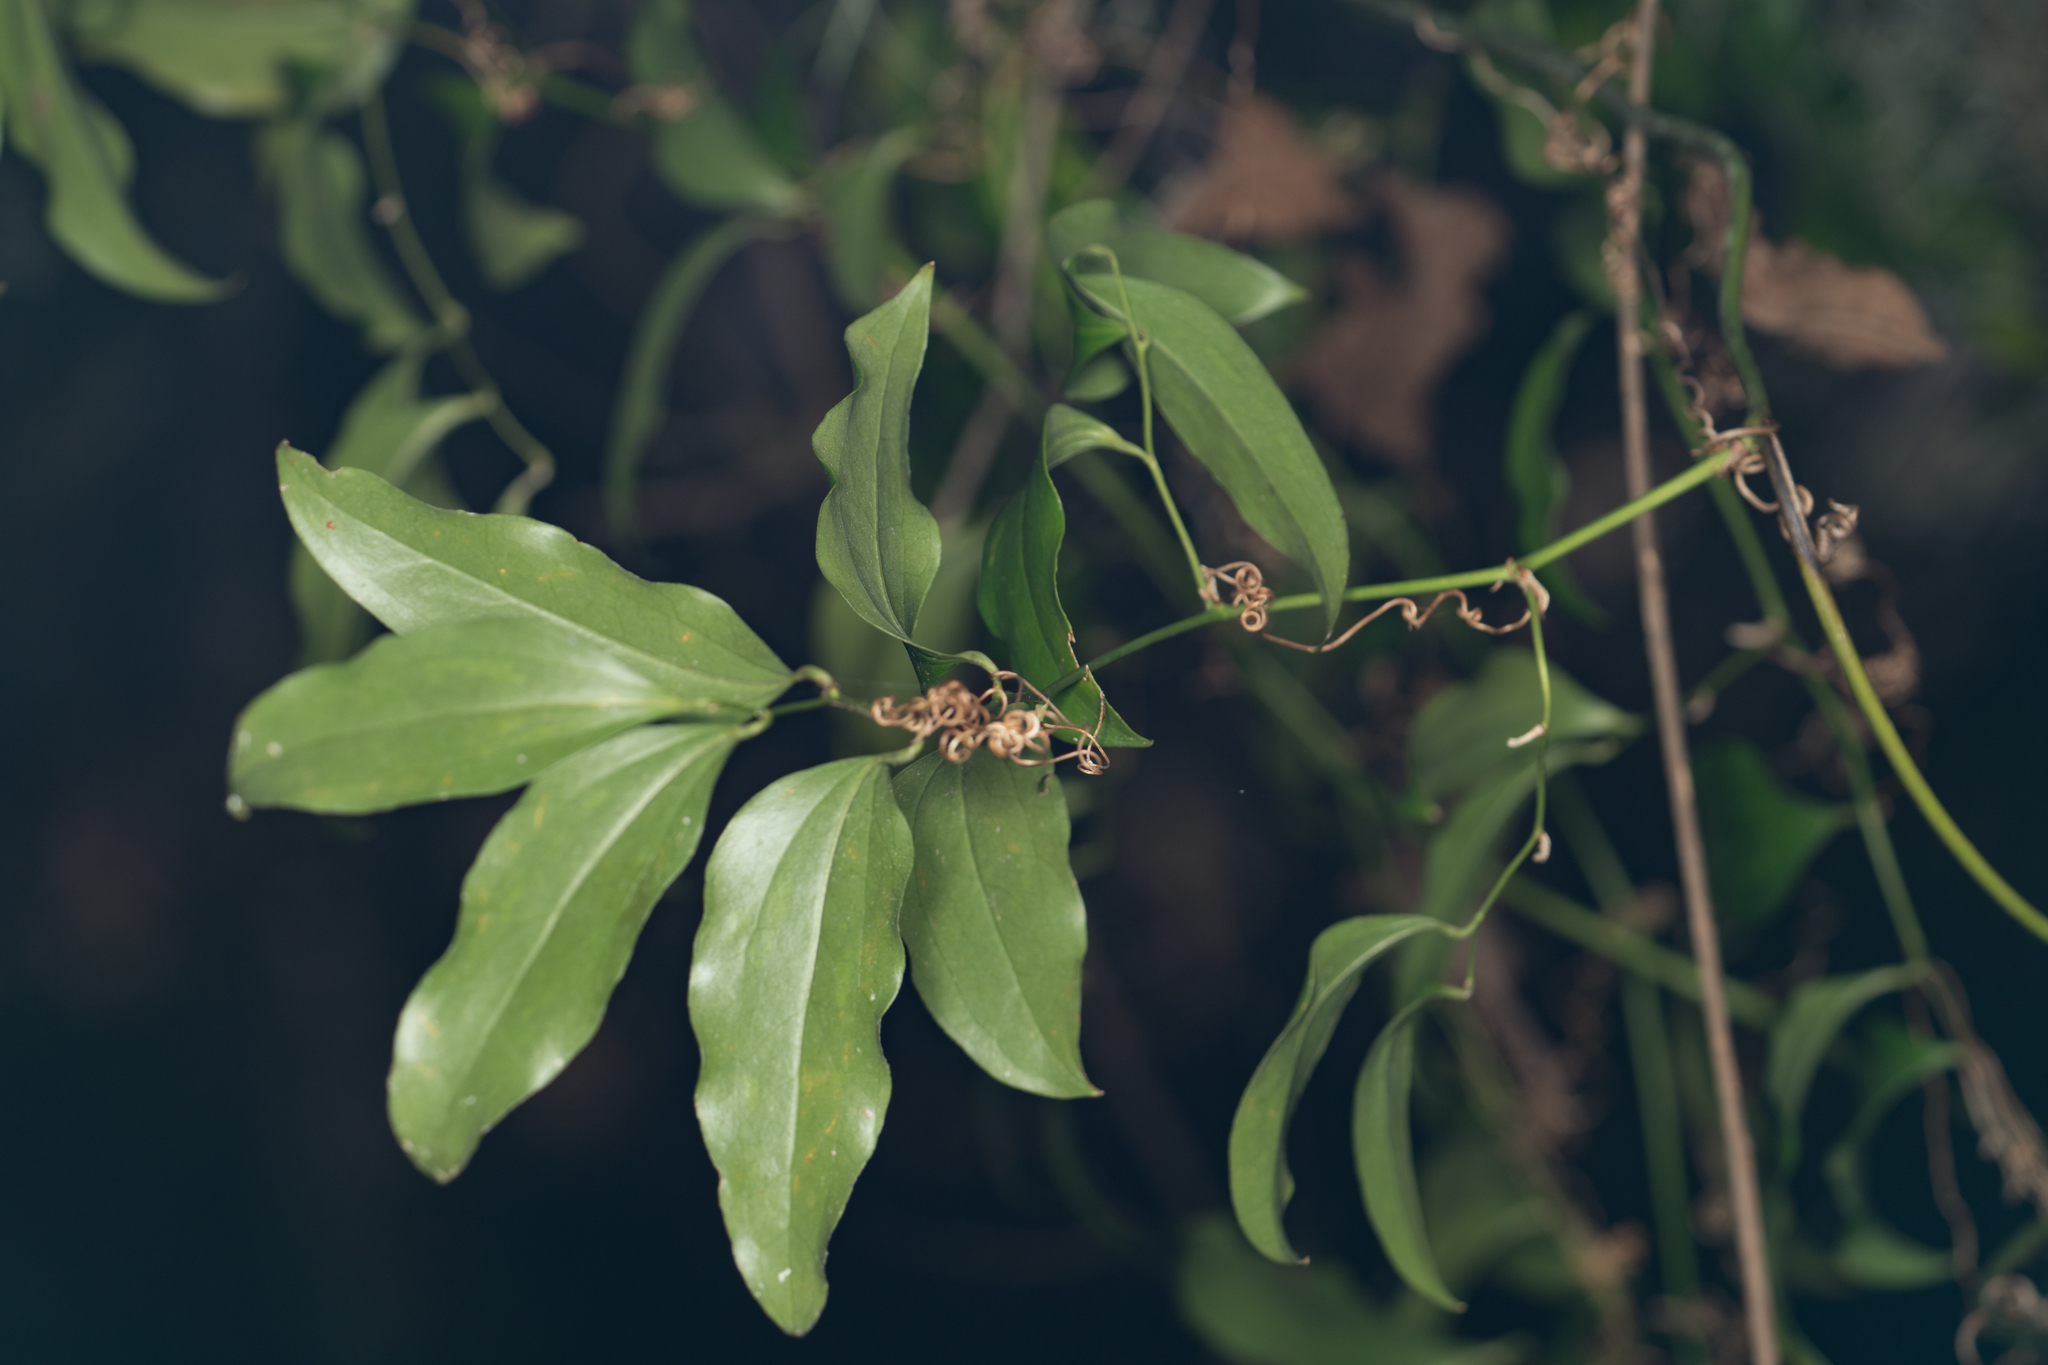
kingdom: Plantae
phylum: Tracheophyta
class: Liliopsida
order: Liliales
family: Smilacaceae
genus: Smilax
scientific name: Smilax maritima
